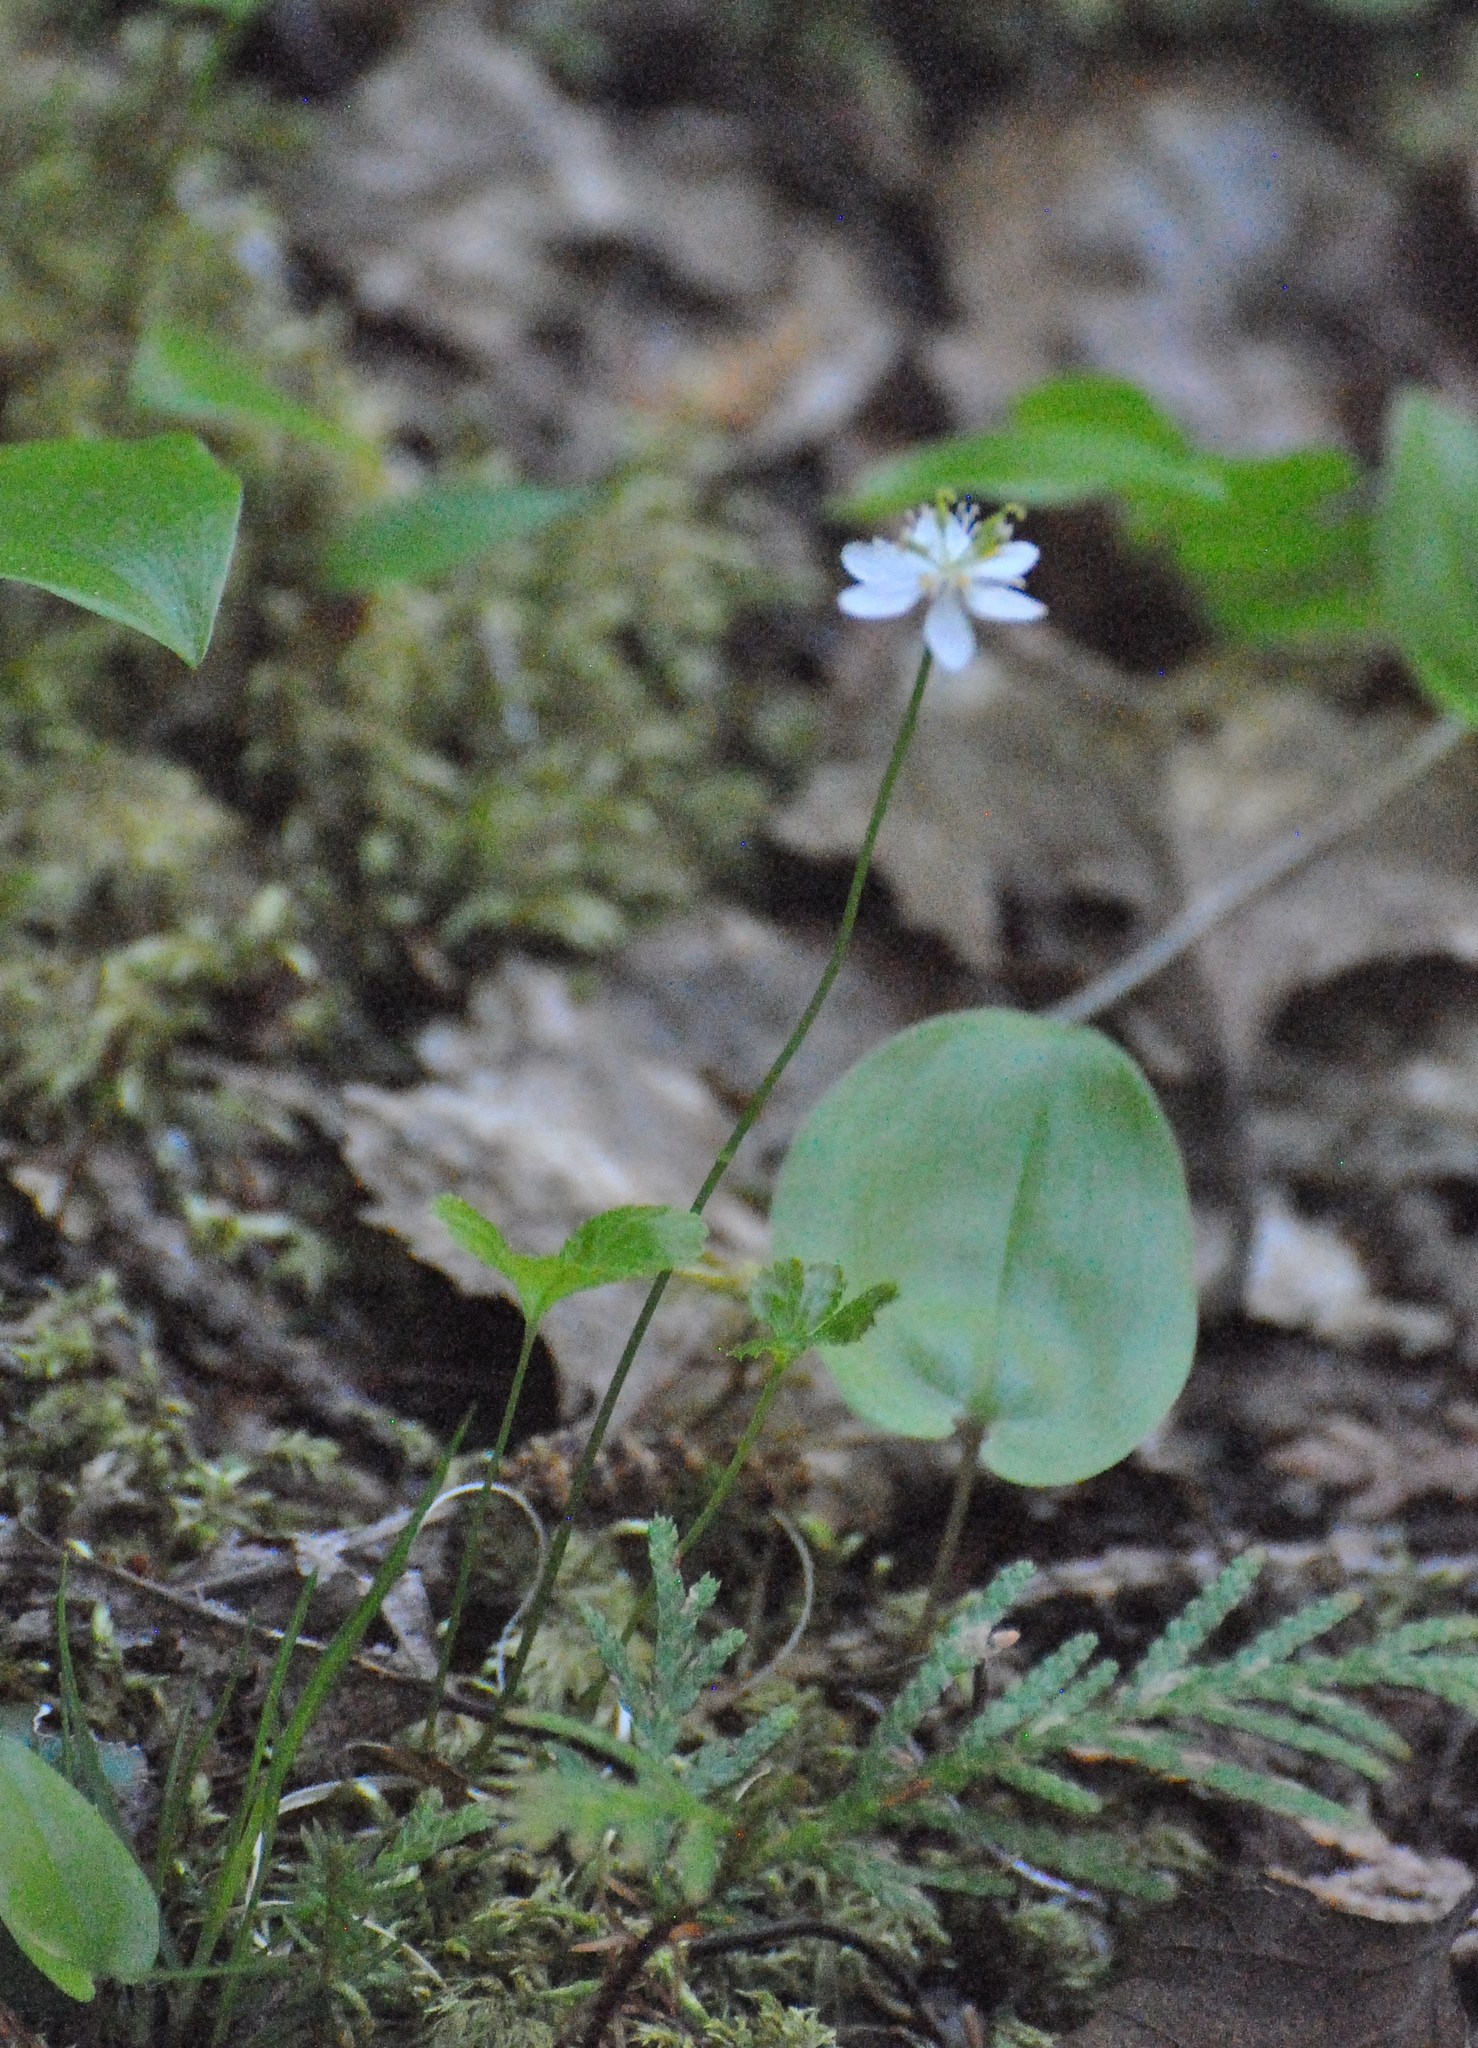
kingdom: Plantae
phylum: Tracheophyta
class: Magnoliopsida
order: Ranunculales
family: Ranunculaceae
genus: Coptis
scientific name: Coptis trifolia
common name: Canker-root
